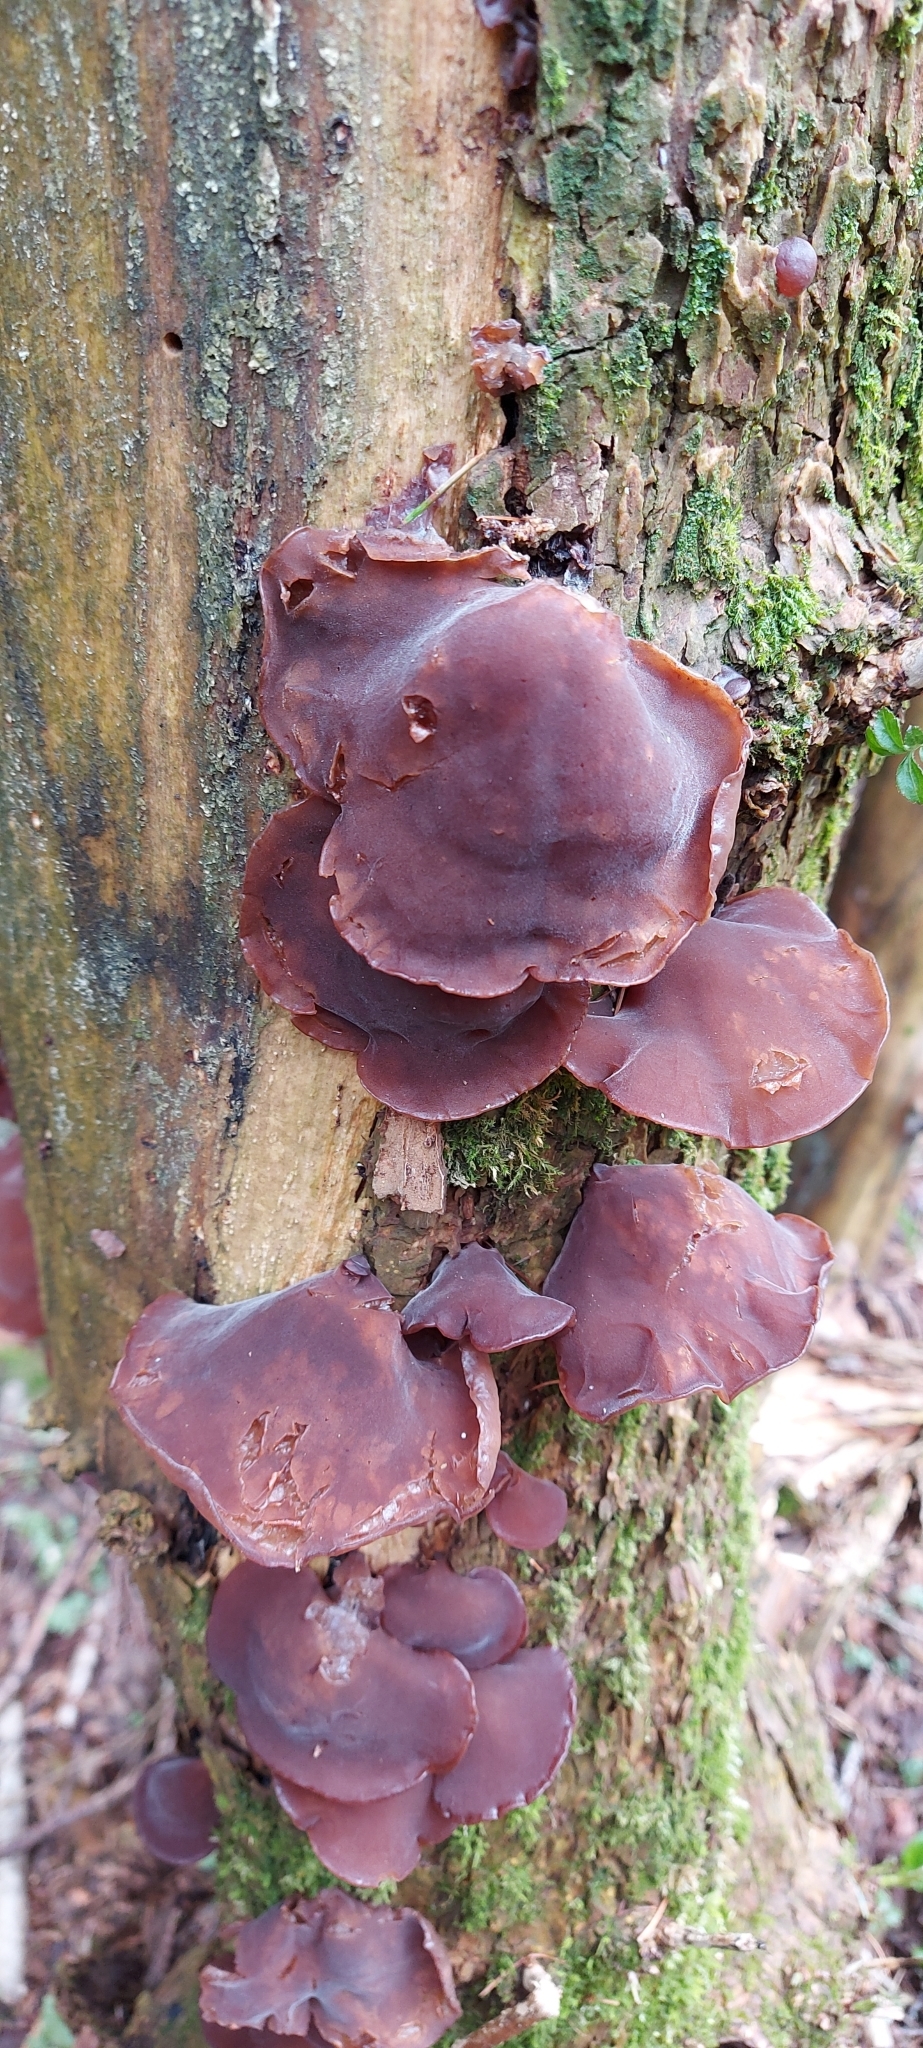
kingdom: Fungi
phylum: Basidiomycota
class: Agaricomycetes
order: Auriculariales
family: Auriculariaceae
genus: Auricularia
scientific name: Auricularia auricula-judae
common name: Jelly ear
